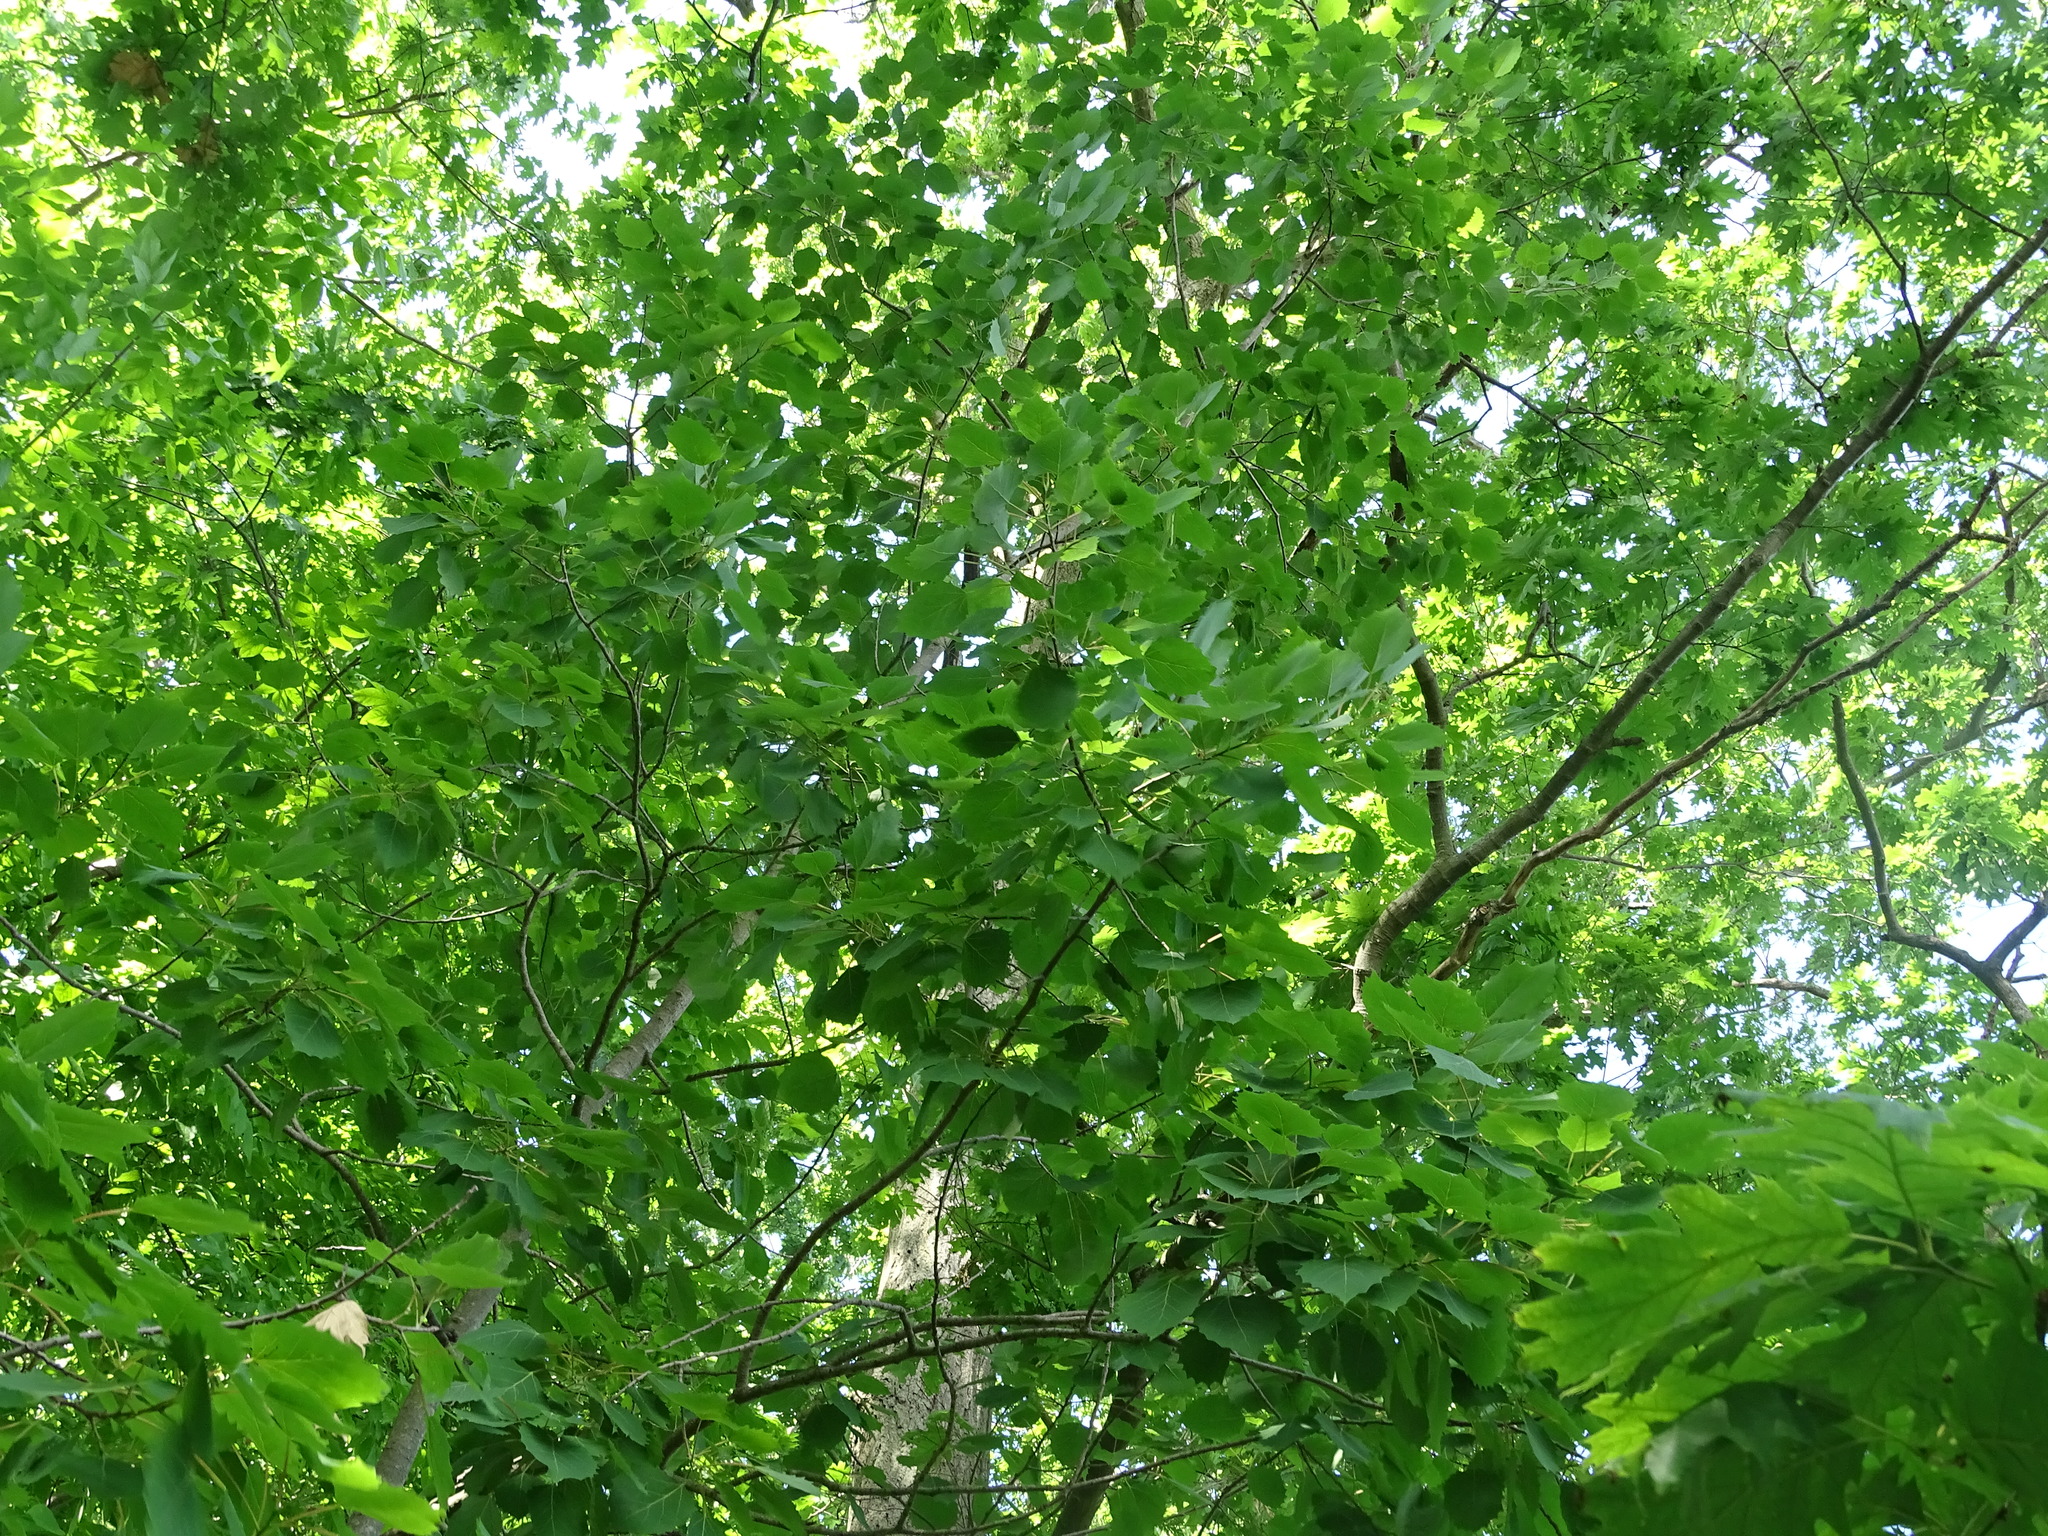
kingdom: Plantae
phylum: Tracheophyta
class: Magnoliopsida
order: Malpighiales
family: Salicaceae
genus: Populus
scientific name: Populus grandidentata
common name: Bigtooth aspen
